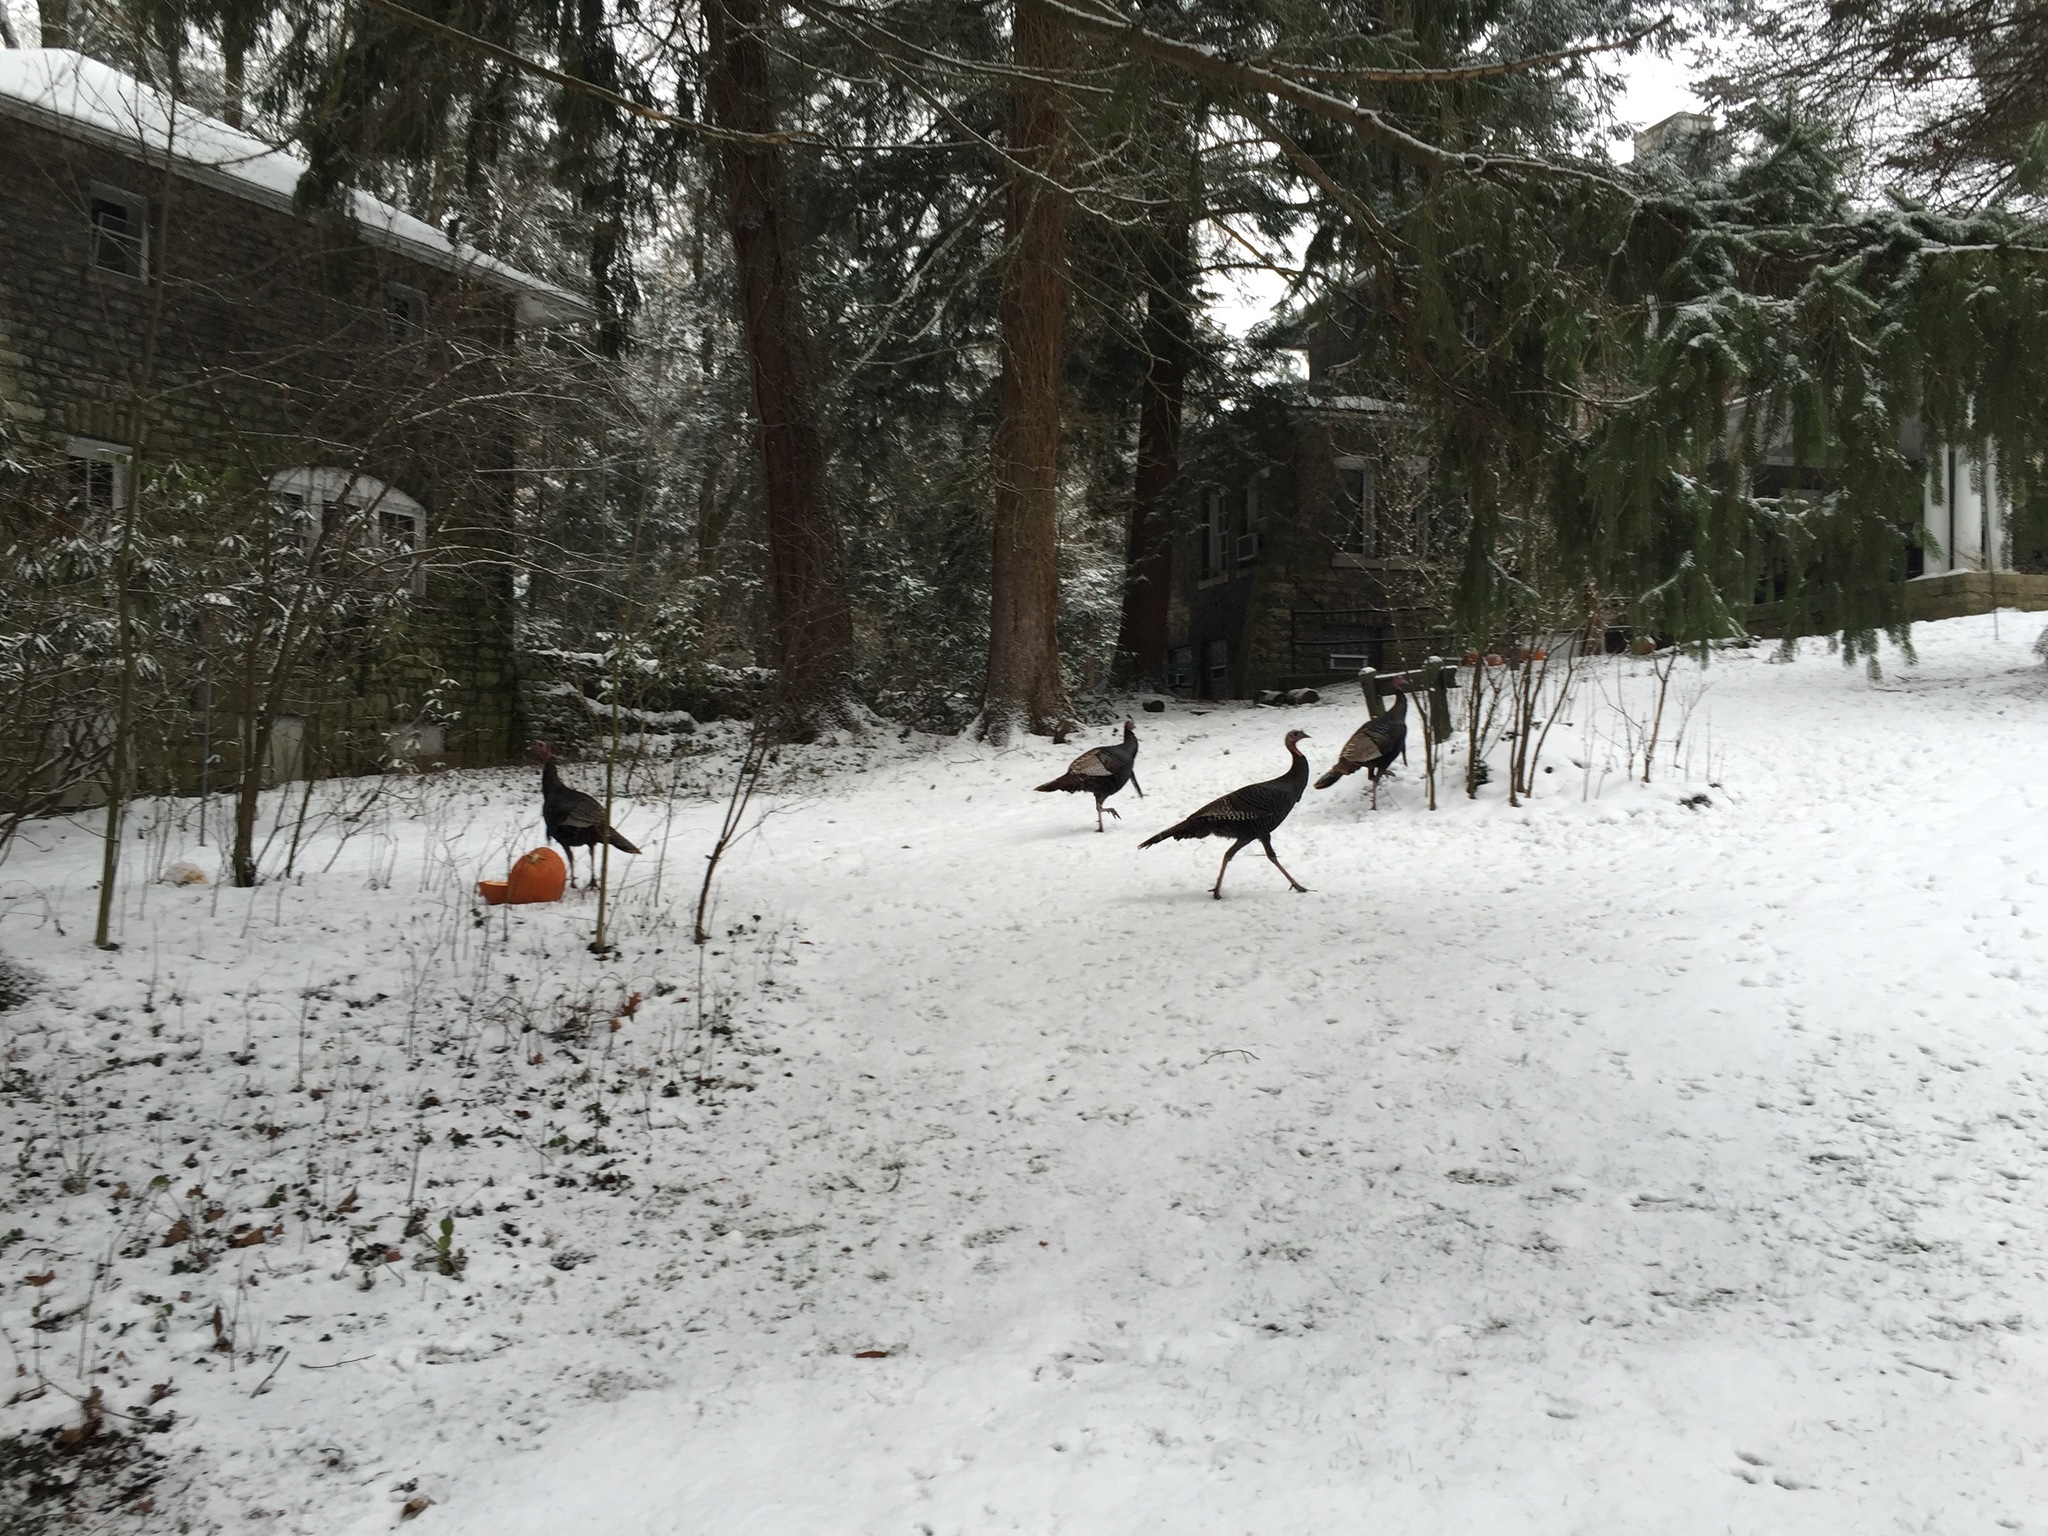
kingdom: Animalia
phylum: Chordata
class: Aves
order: Galliformes
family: Phasianidae
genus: Meleagris
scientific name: Meleagris gallopavo
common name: Wild turkey
